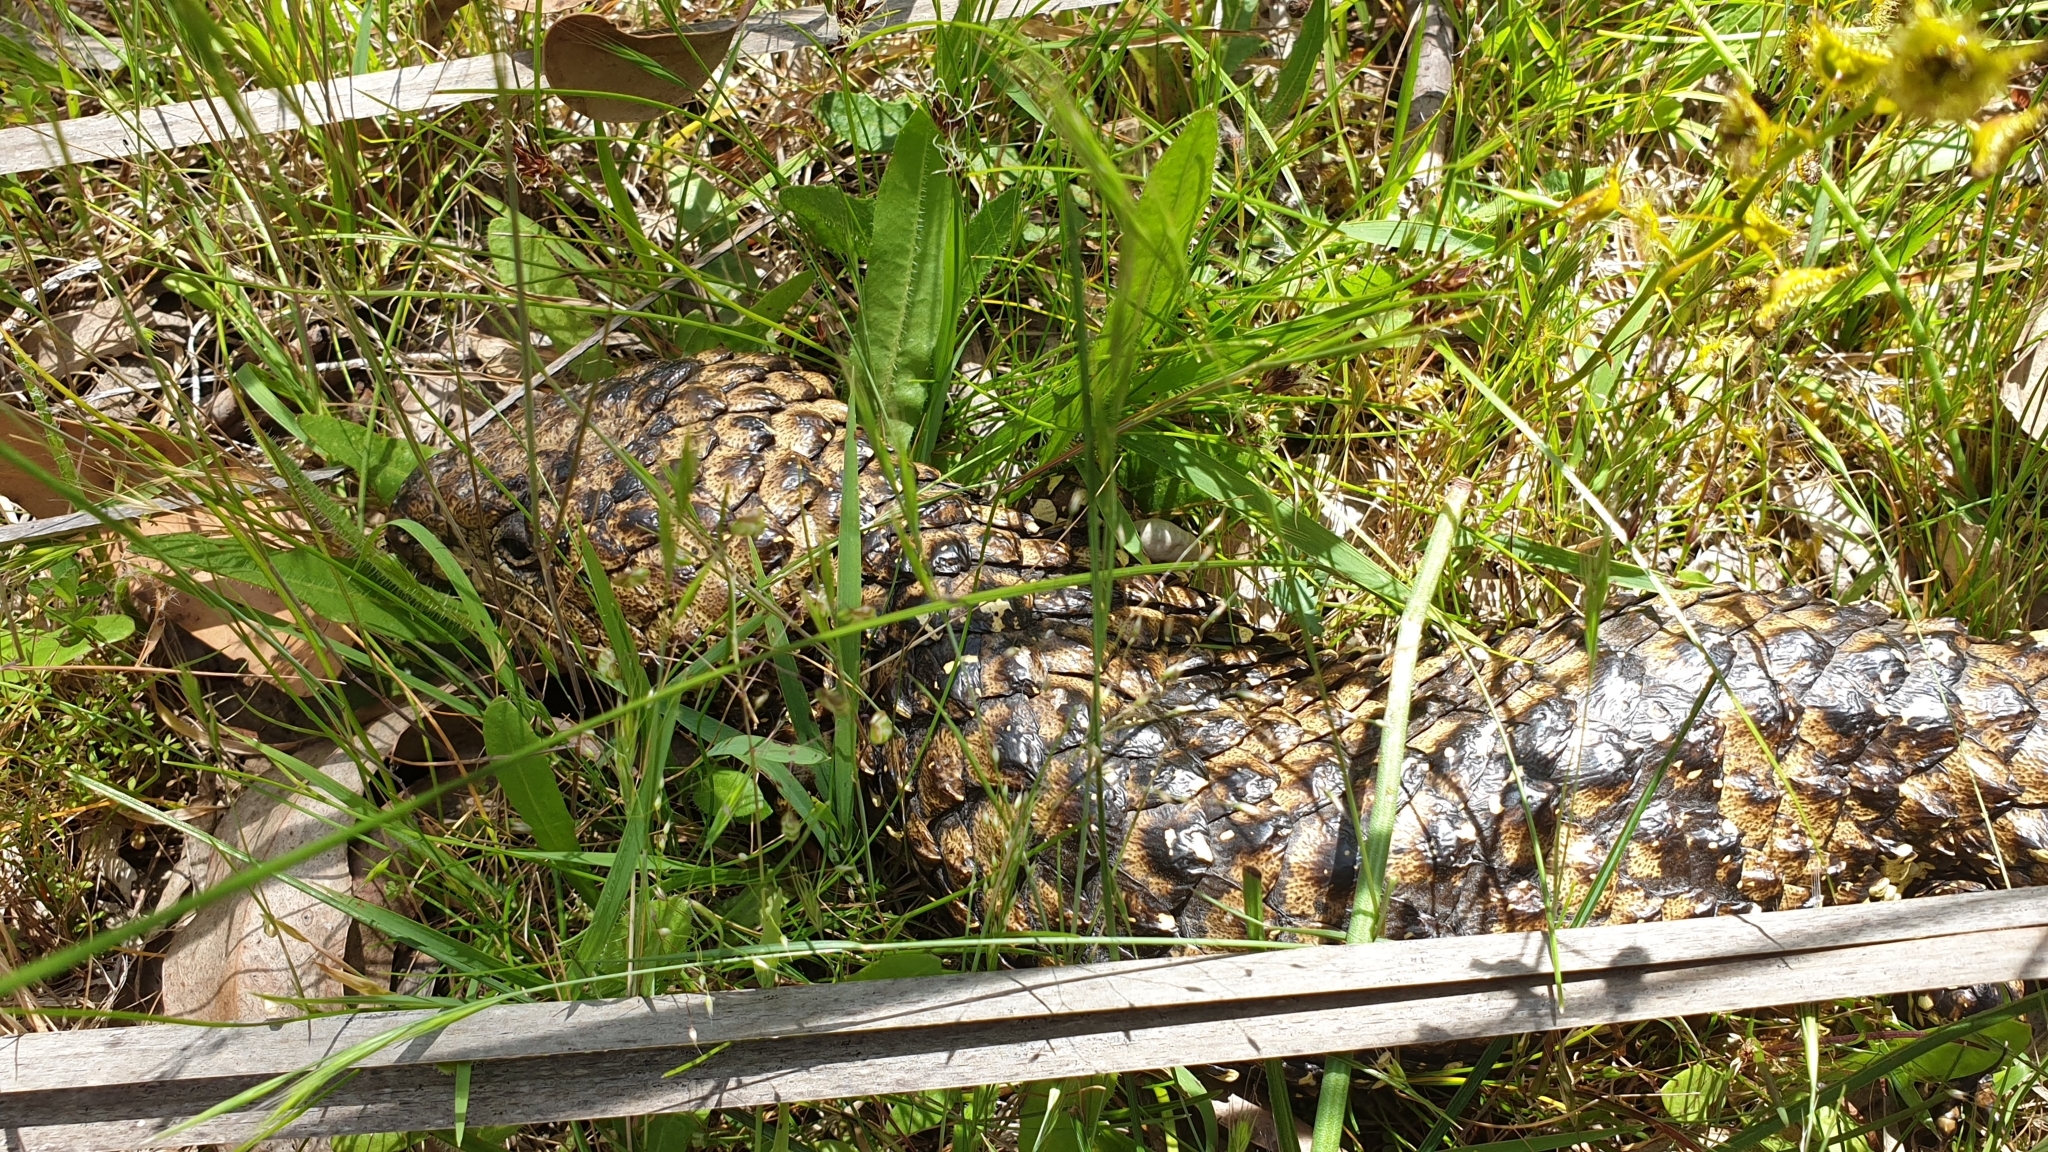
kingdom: Animalia
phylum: Chordata
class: Squamata
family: Scincidae
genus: Tiliqua
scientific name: Tiliqua rugosa
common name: Pinecone lizard
